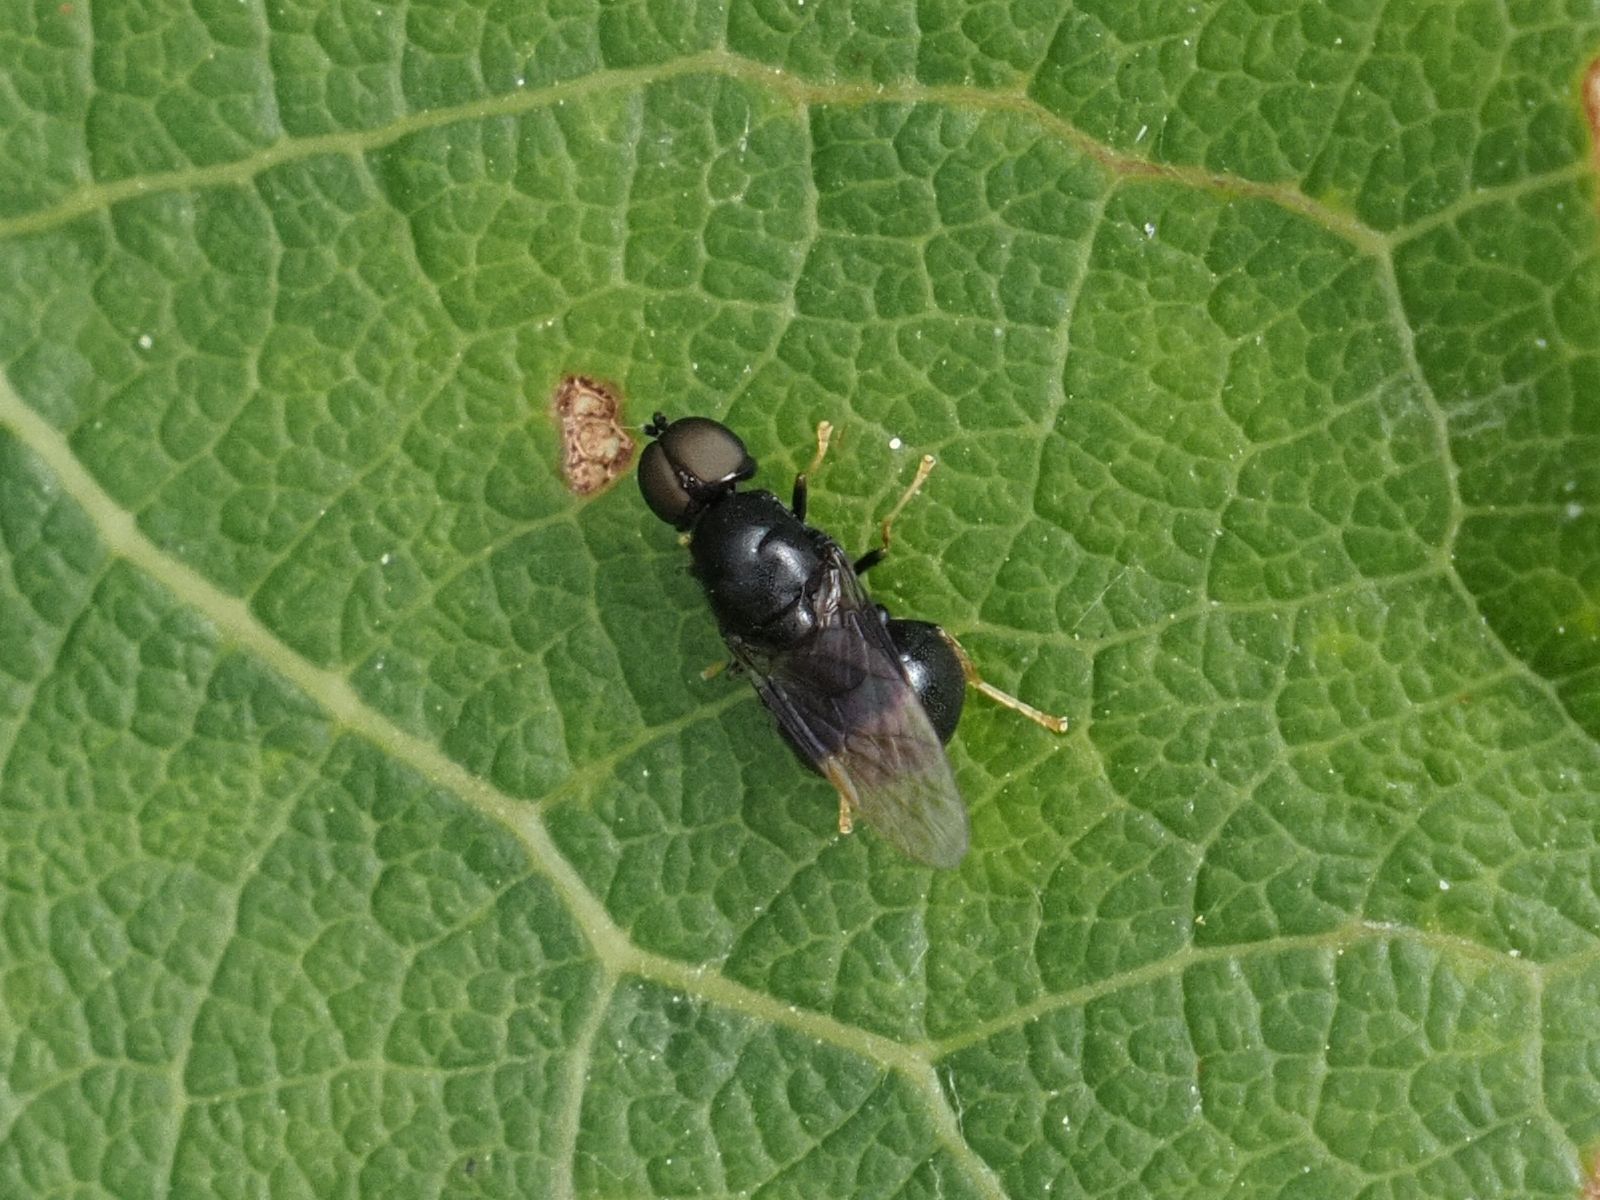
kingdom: Animalia
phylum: Arthropoda
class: Insecta
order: Diptera
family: Stratiomyidae
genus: Pachygaster
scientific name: Pachygaster atra
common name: Dark-winged black
